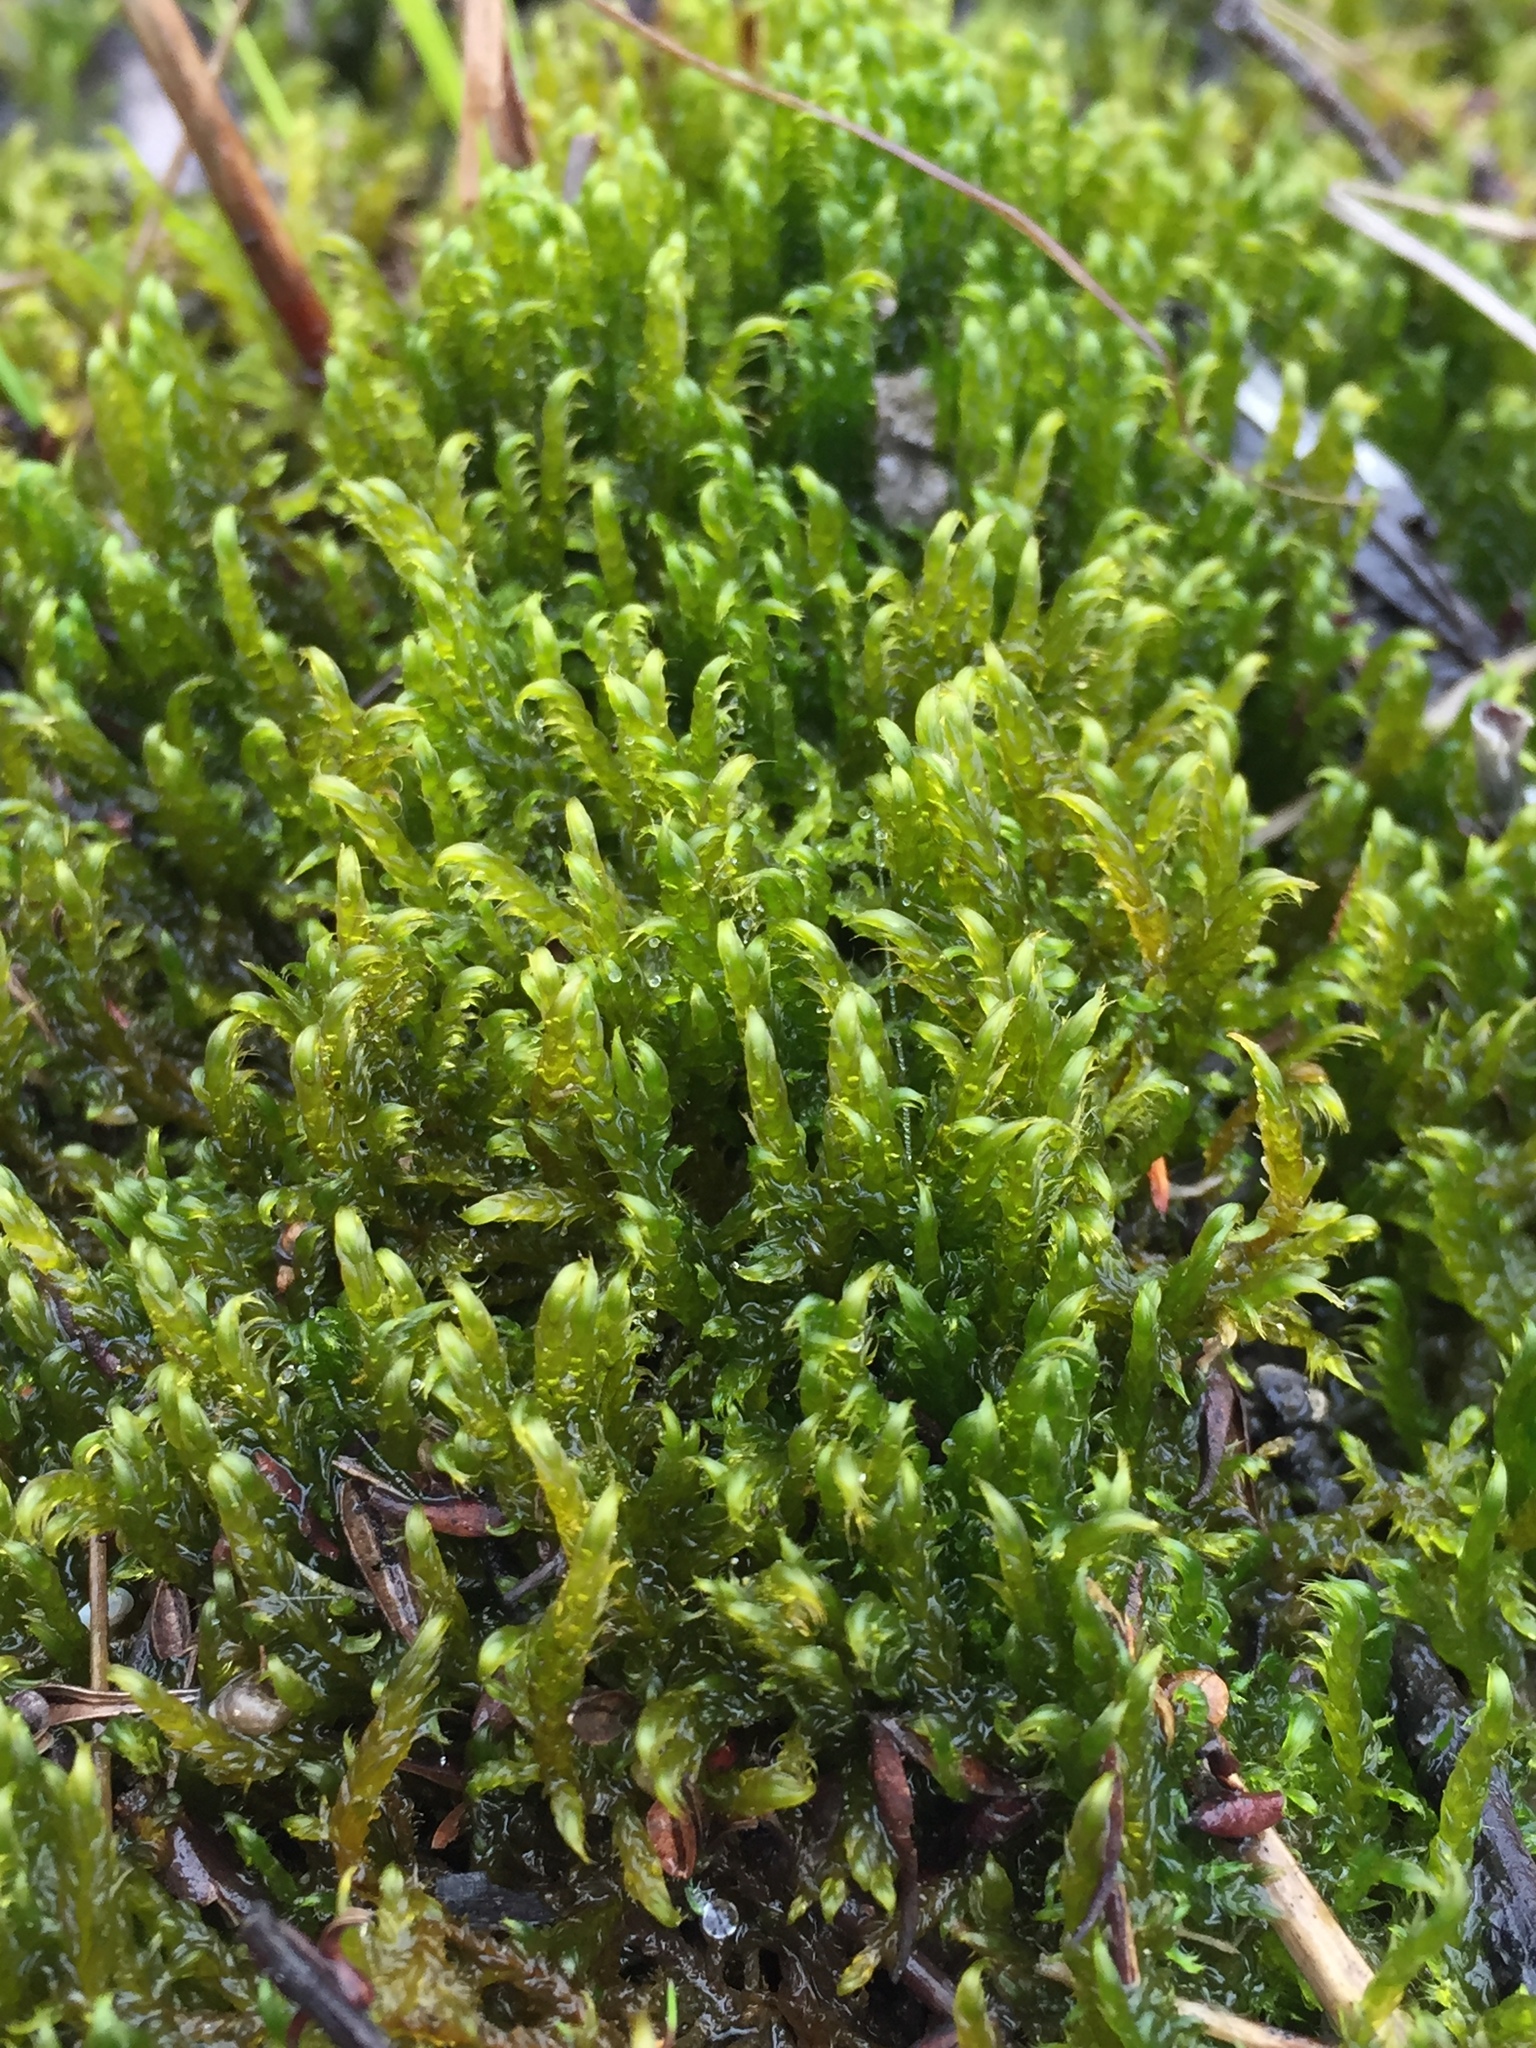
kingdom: Plantae
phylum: Bryophyta
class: Bryopsida
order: Hypnales
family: Amblystegiaceae
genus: Drepanocladus
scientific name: Drepanocladus aduncus
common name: Knieff's hook moss
